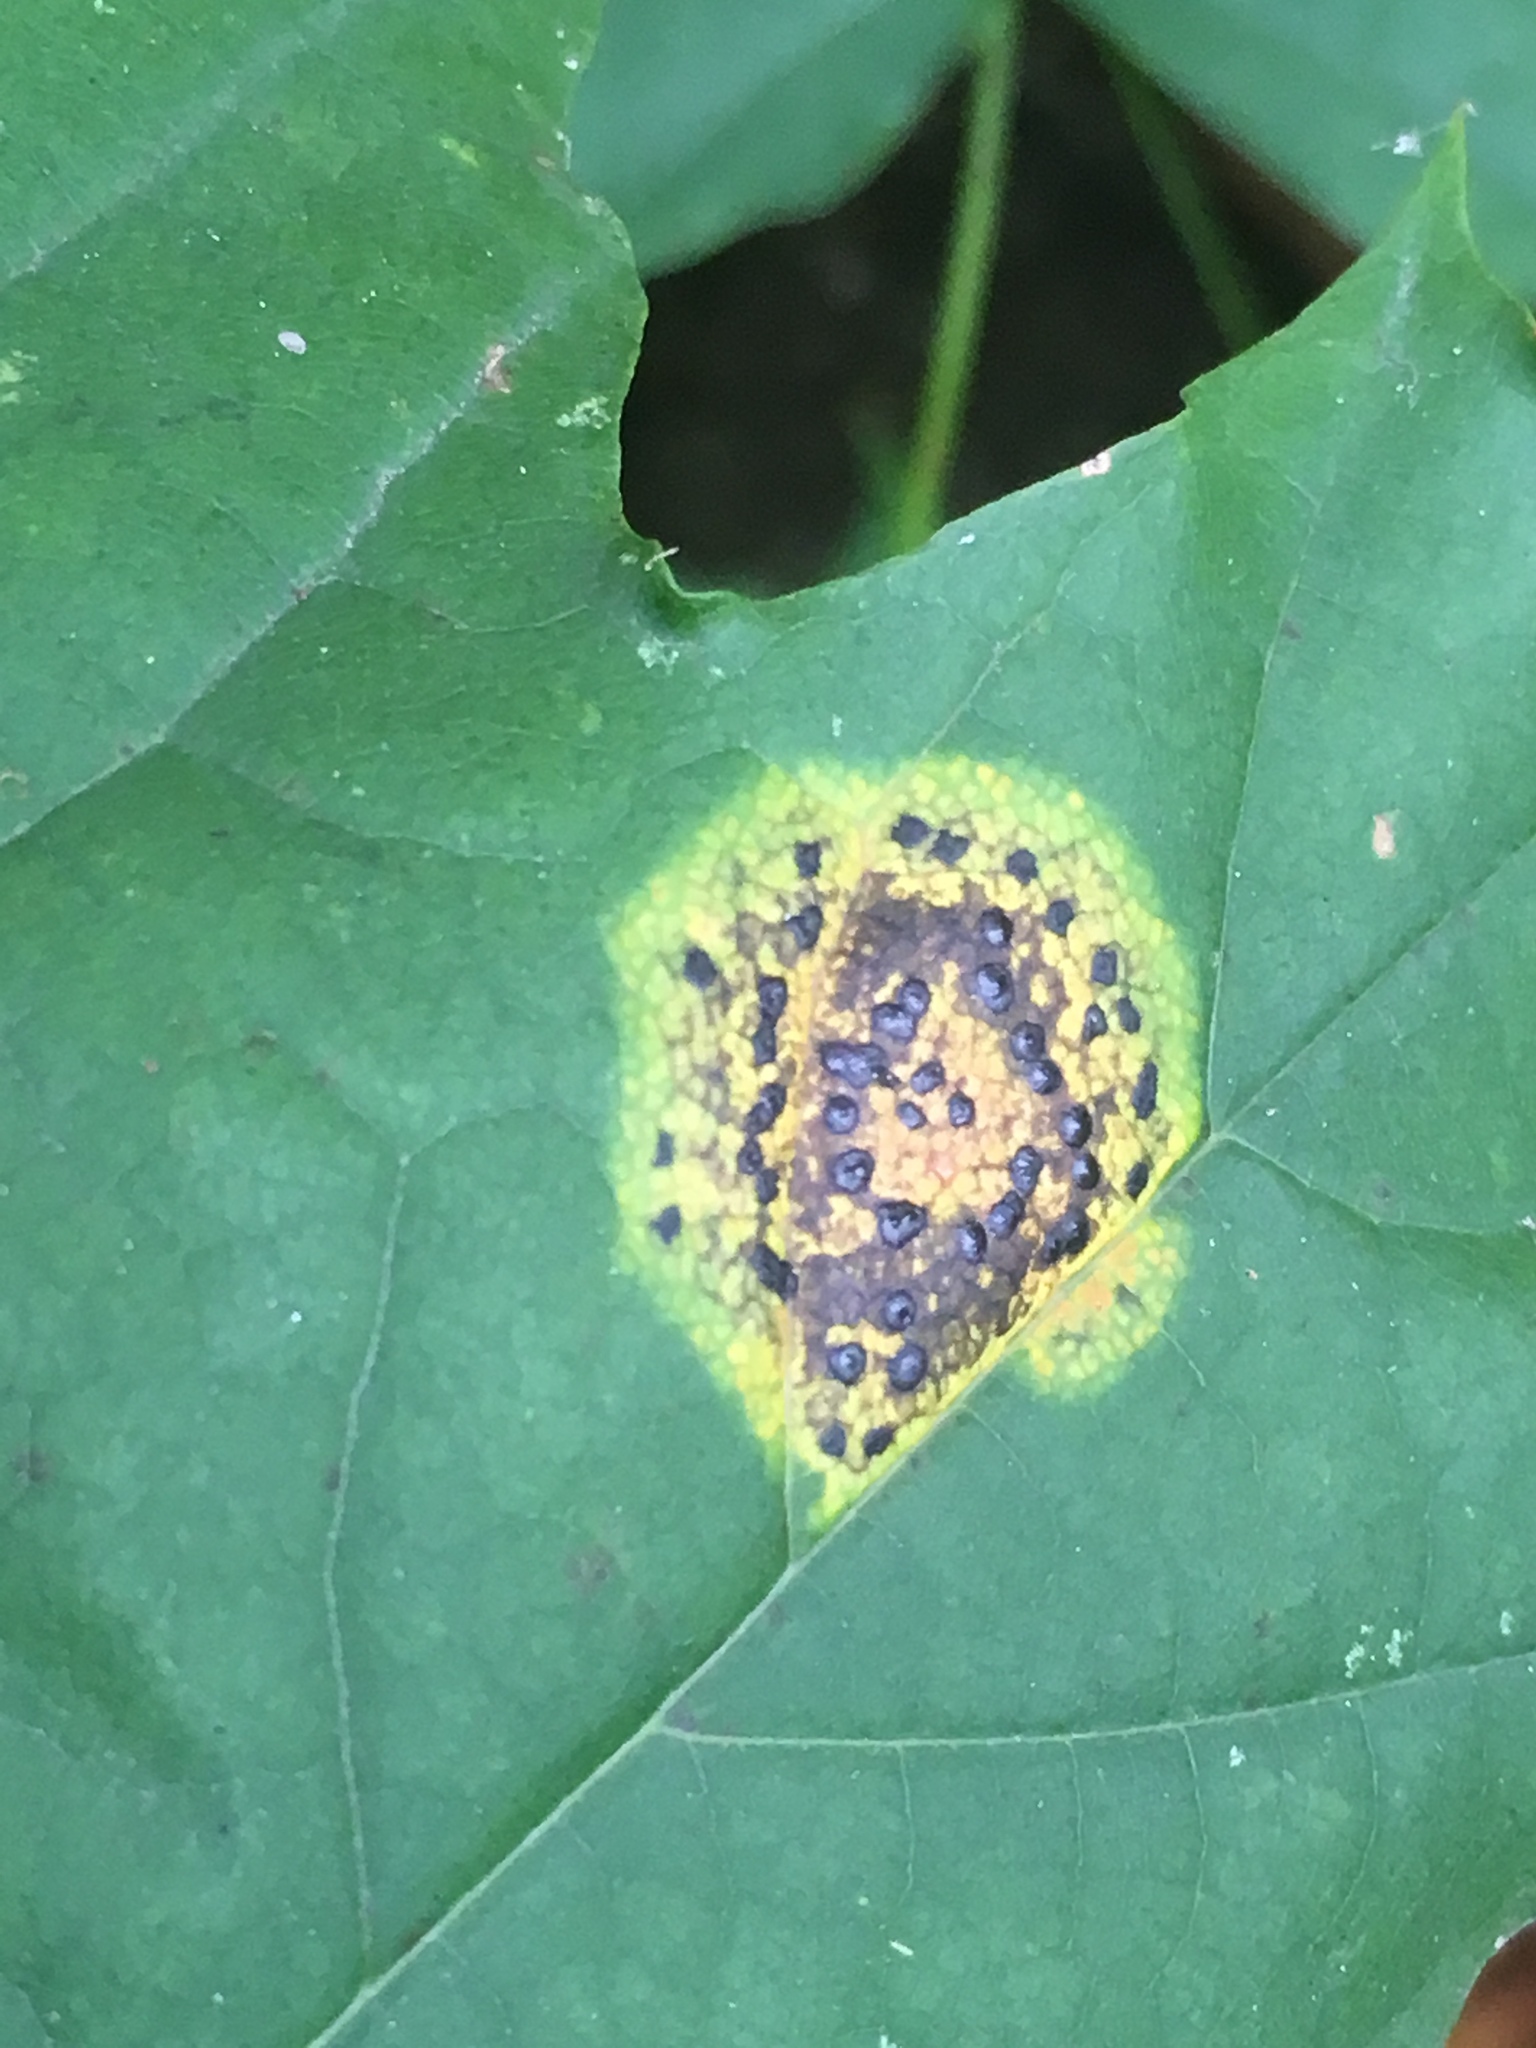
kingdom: Fungi
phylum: Ascomycota
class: Leotiomycetes
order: Rhytismatales
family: Rhytismataceae
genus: Rhytisma
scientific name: Rhytisma acerinum
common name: European tar spot
